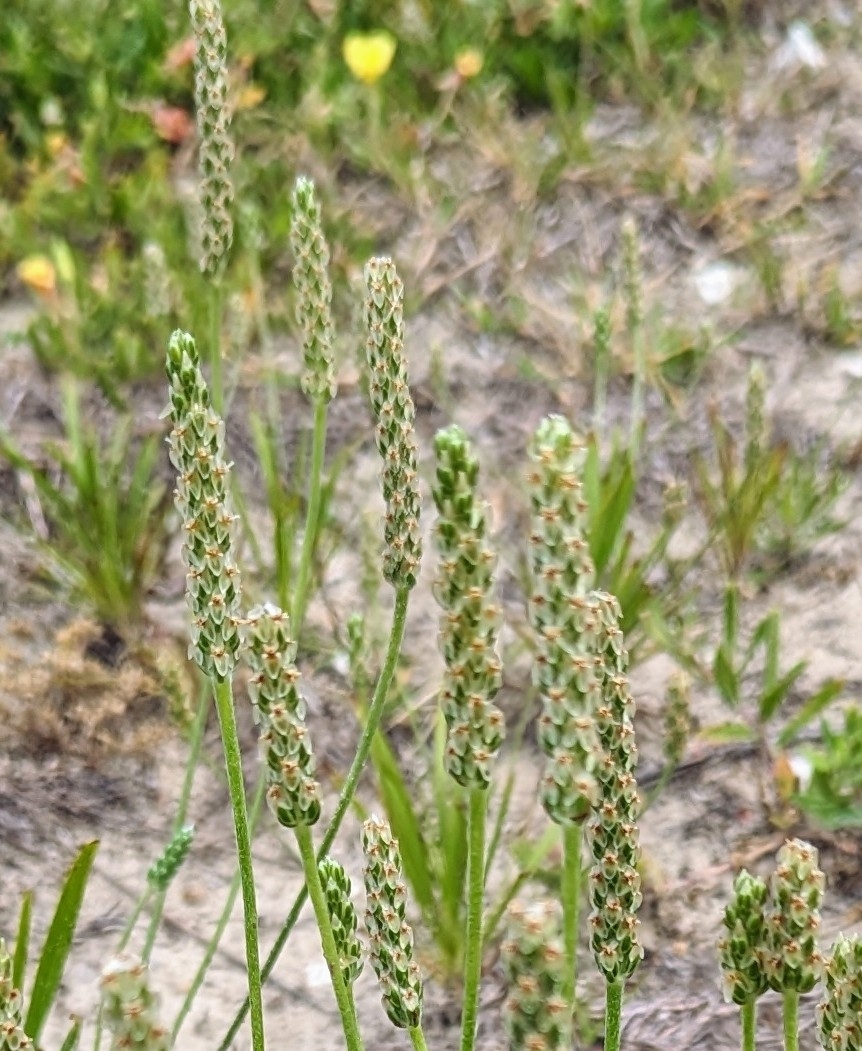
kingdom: Plantae
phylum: Tracheophyta
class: Magnoliopsida
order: Lamiales
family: Plantaginaceae
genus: Plantago
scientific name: Plantago wrightiana
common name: Wright's plantain
